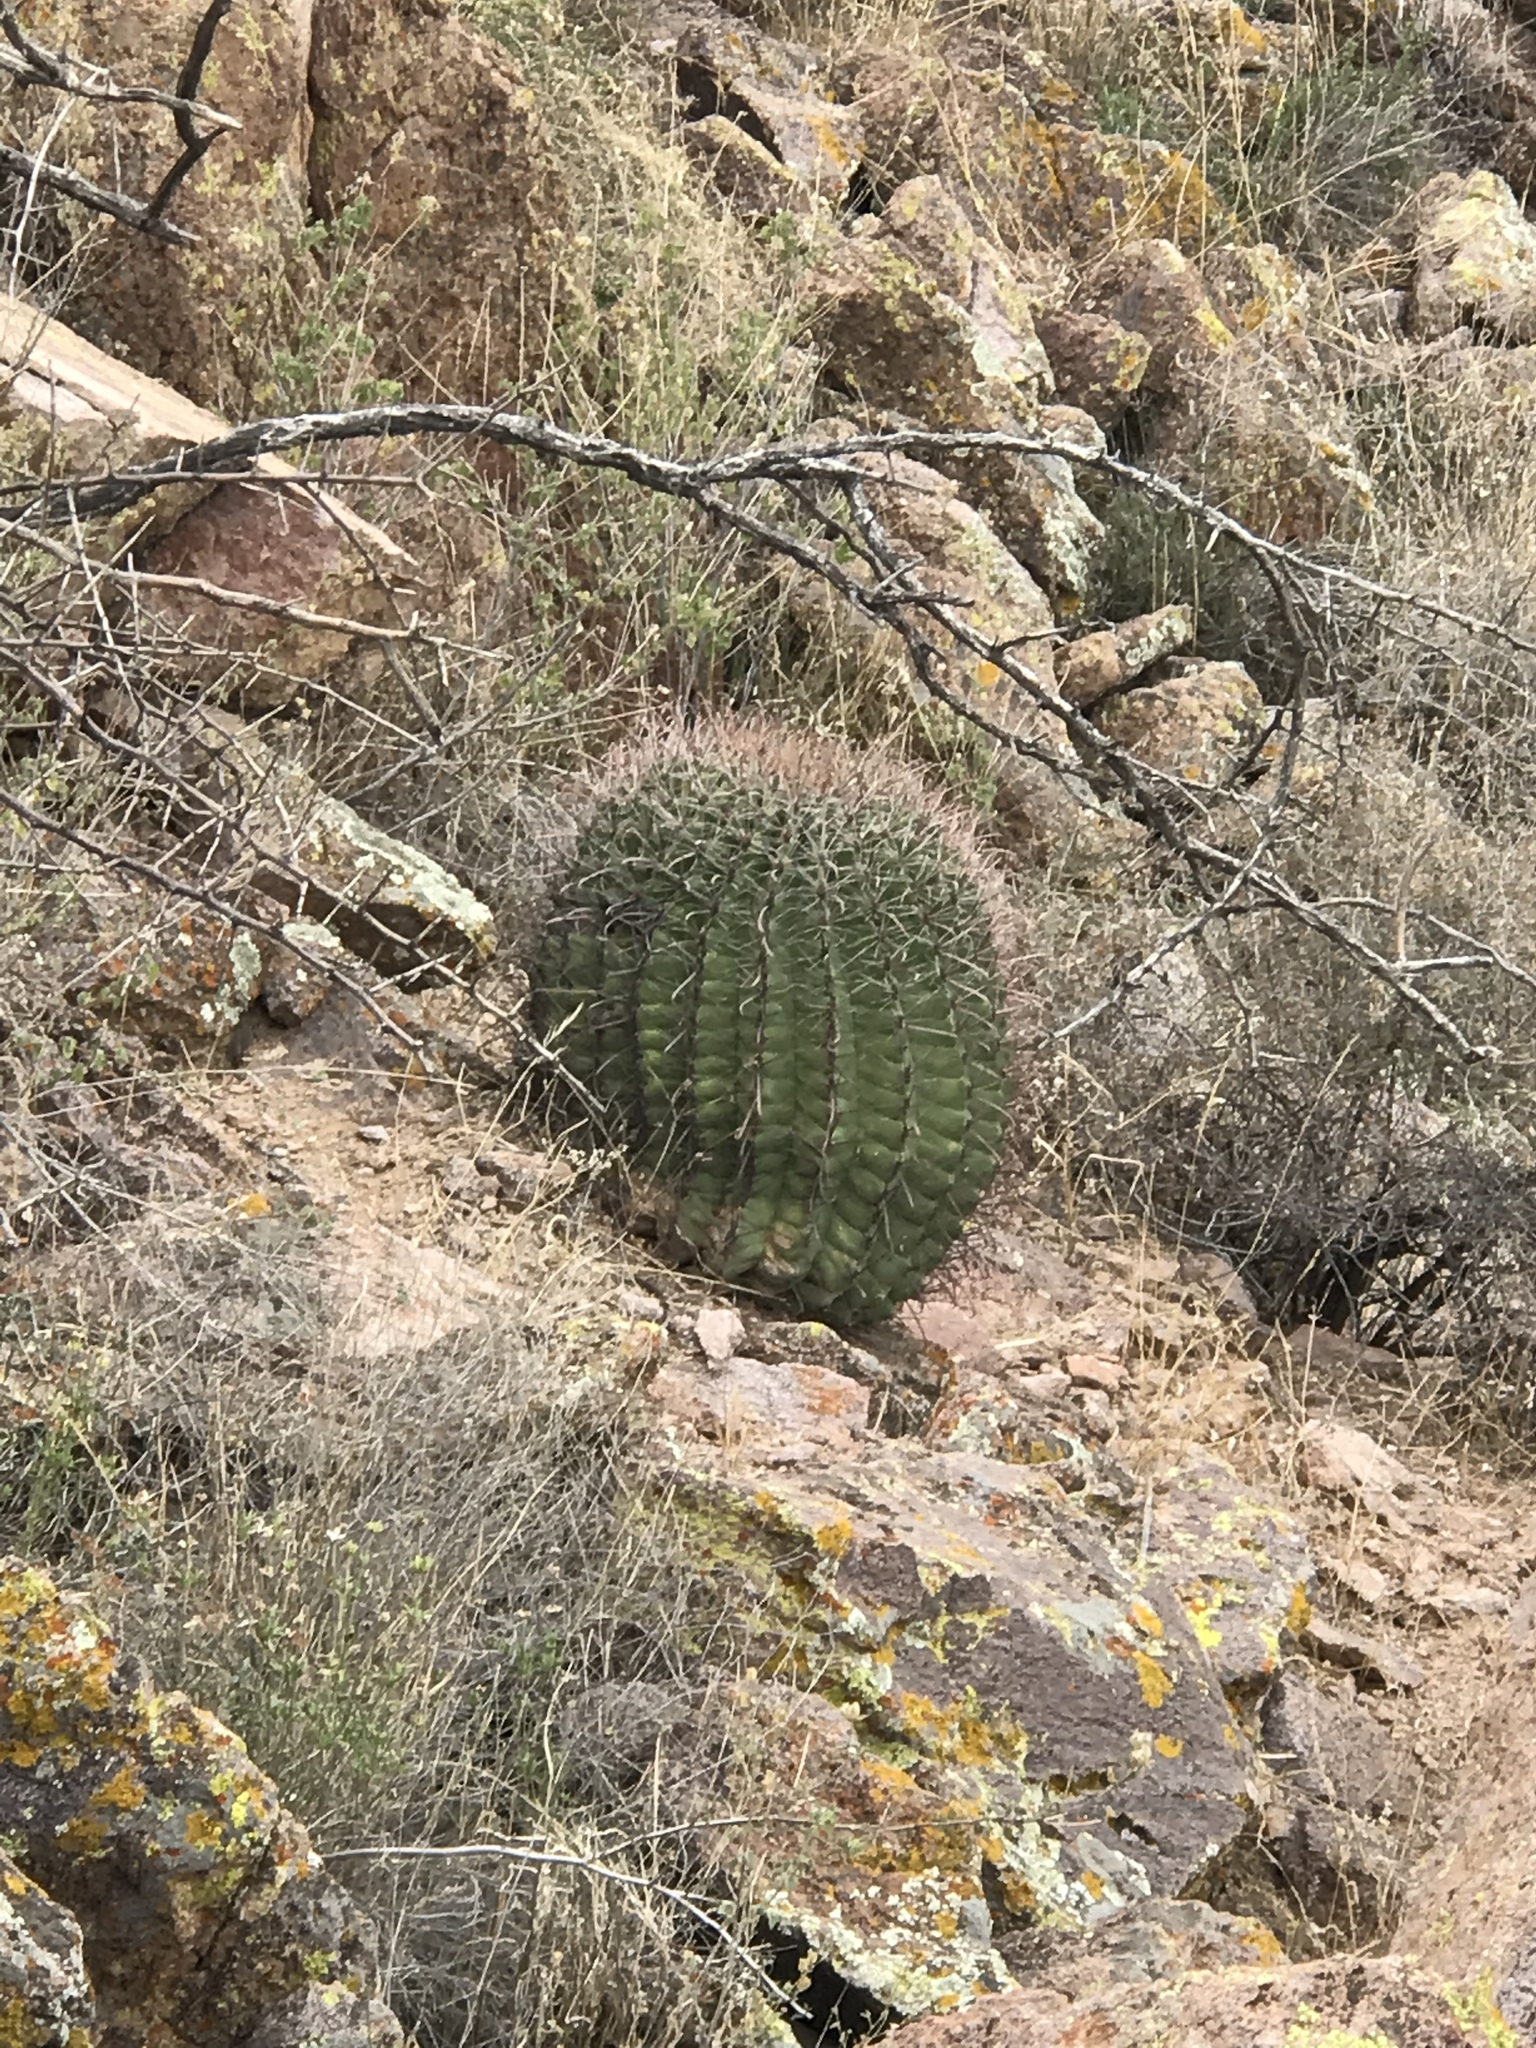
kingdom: Plantae
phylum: Tracheophyta
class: Magnoliopsida
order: Caryophyllales
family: Cactaceae
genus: Ferocactus
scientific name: Ferocactus wislizeni
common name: Candy barrel cactus
